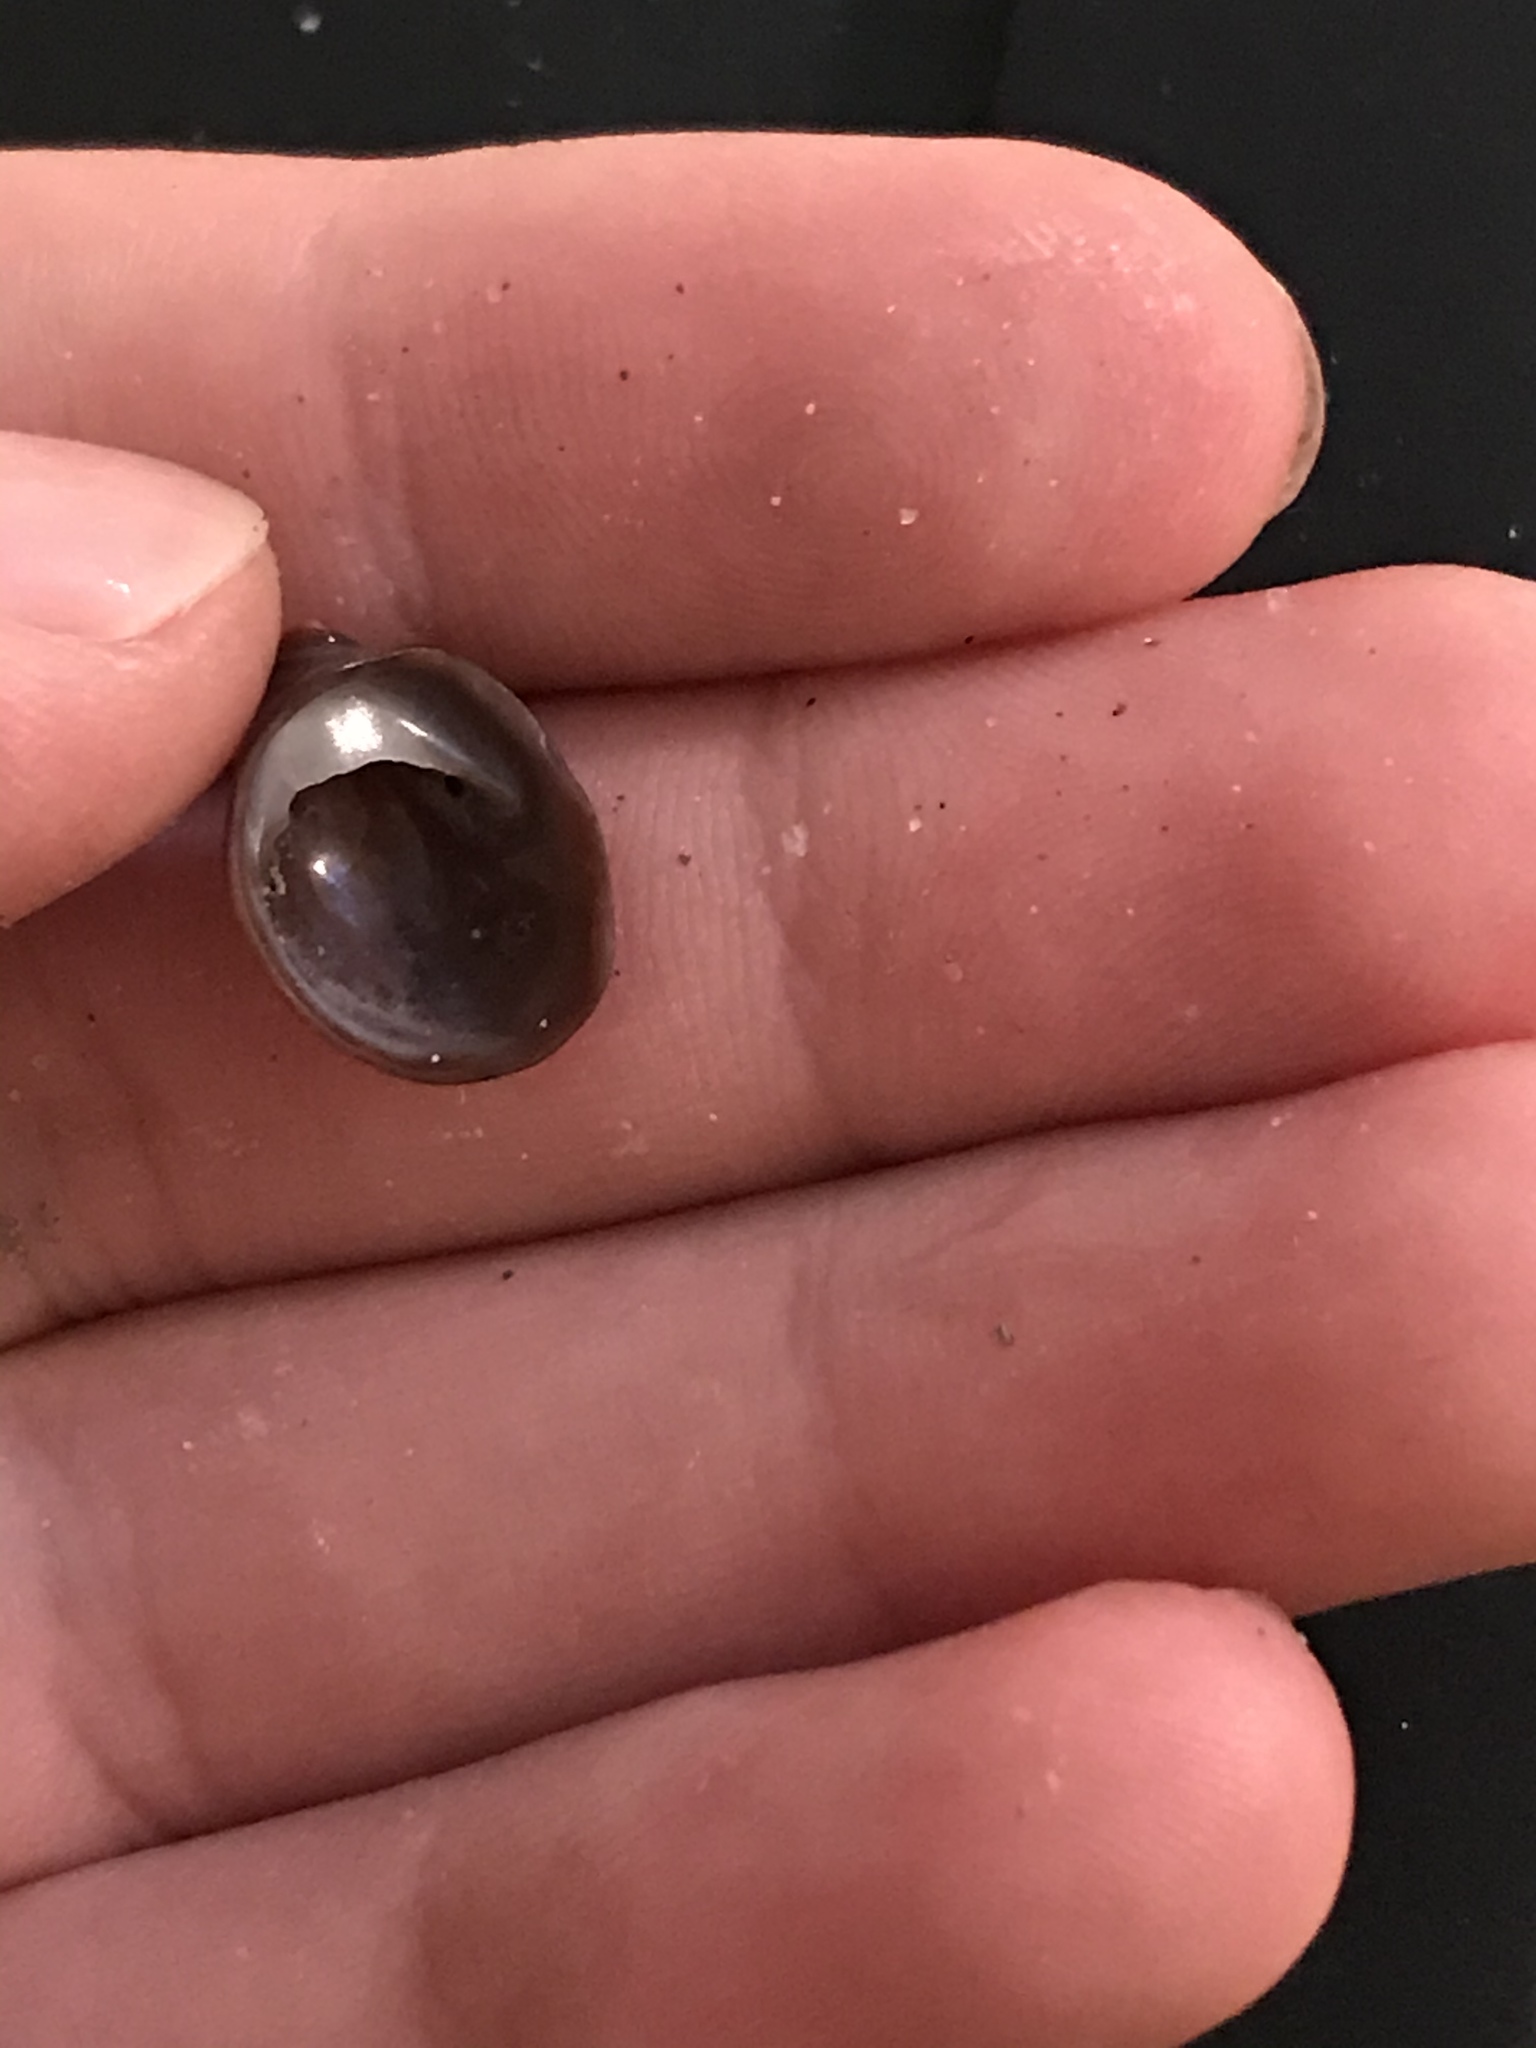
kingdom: Animalia
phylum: Mollusca
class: Gastropoda
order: Littorinimorpha
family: Calyptraeidae
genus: Crepidula
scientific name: Crepidula adunca
